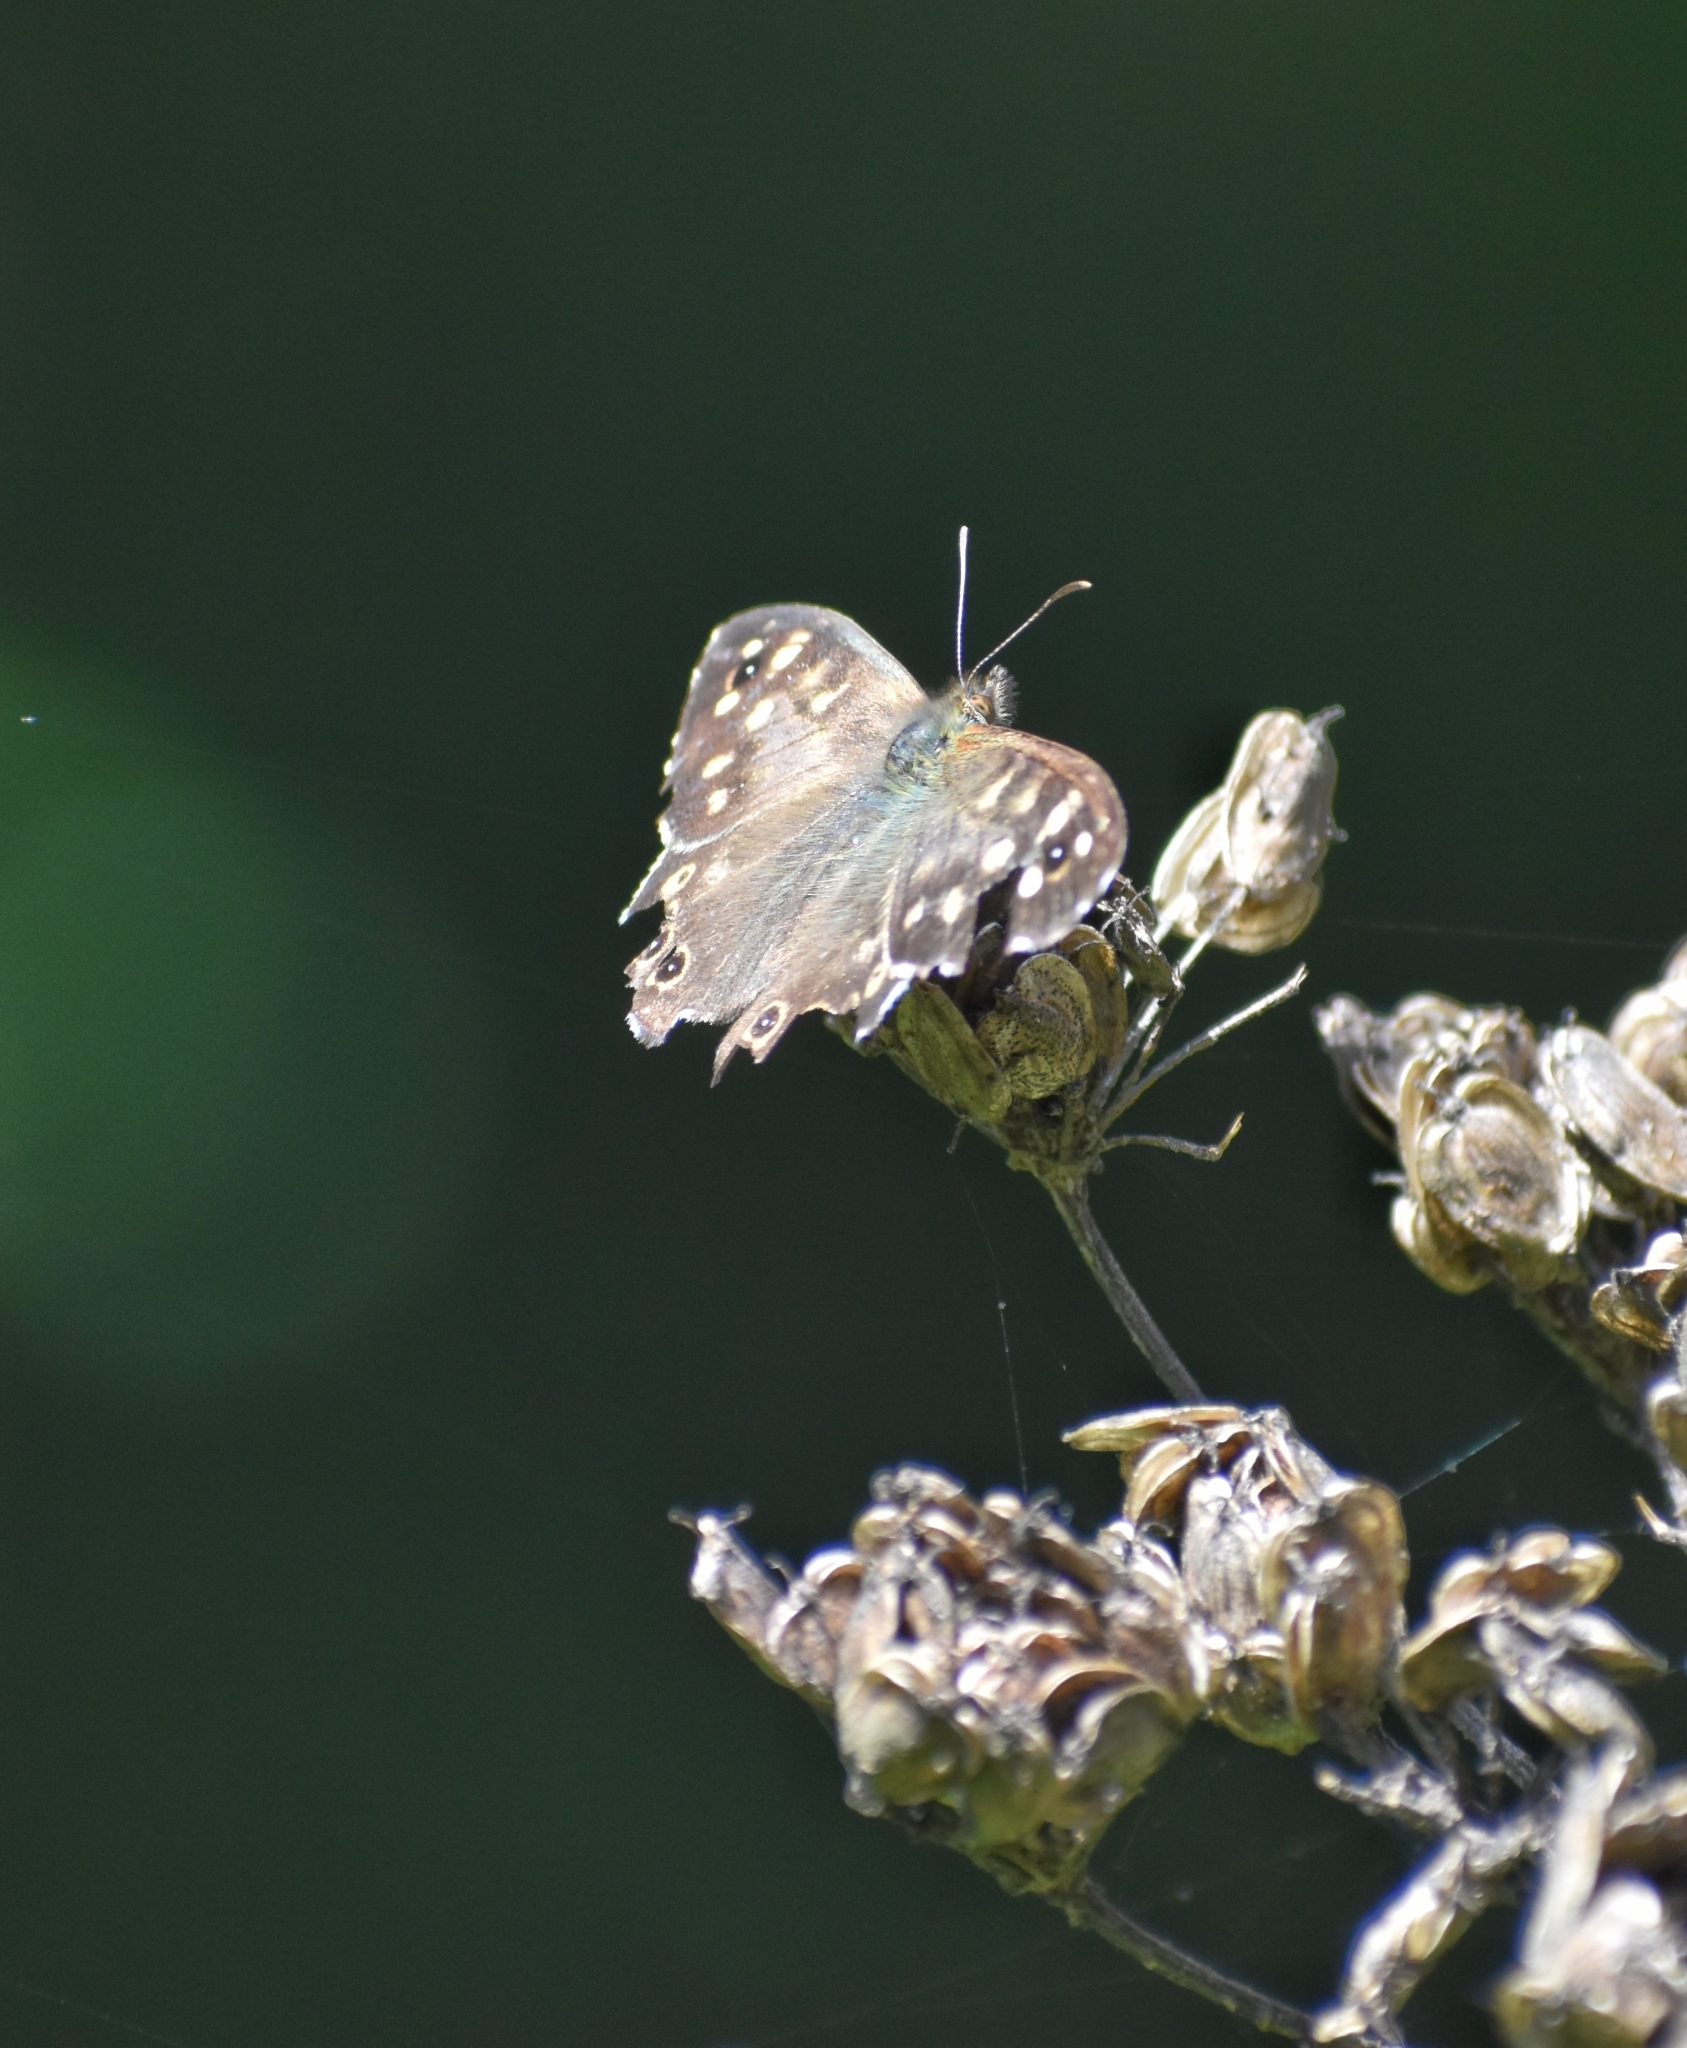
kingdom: Animalia
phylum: Arthropoda
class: Insecta
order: Lepidoptera
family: Nymphalidae
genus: Pararge
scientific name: Pararge aegeria
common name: Speckled wood
